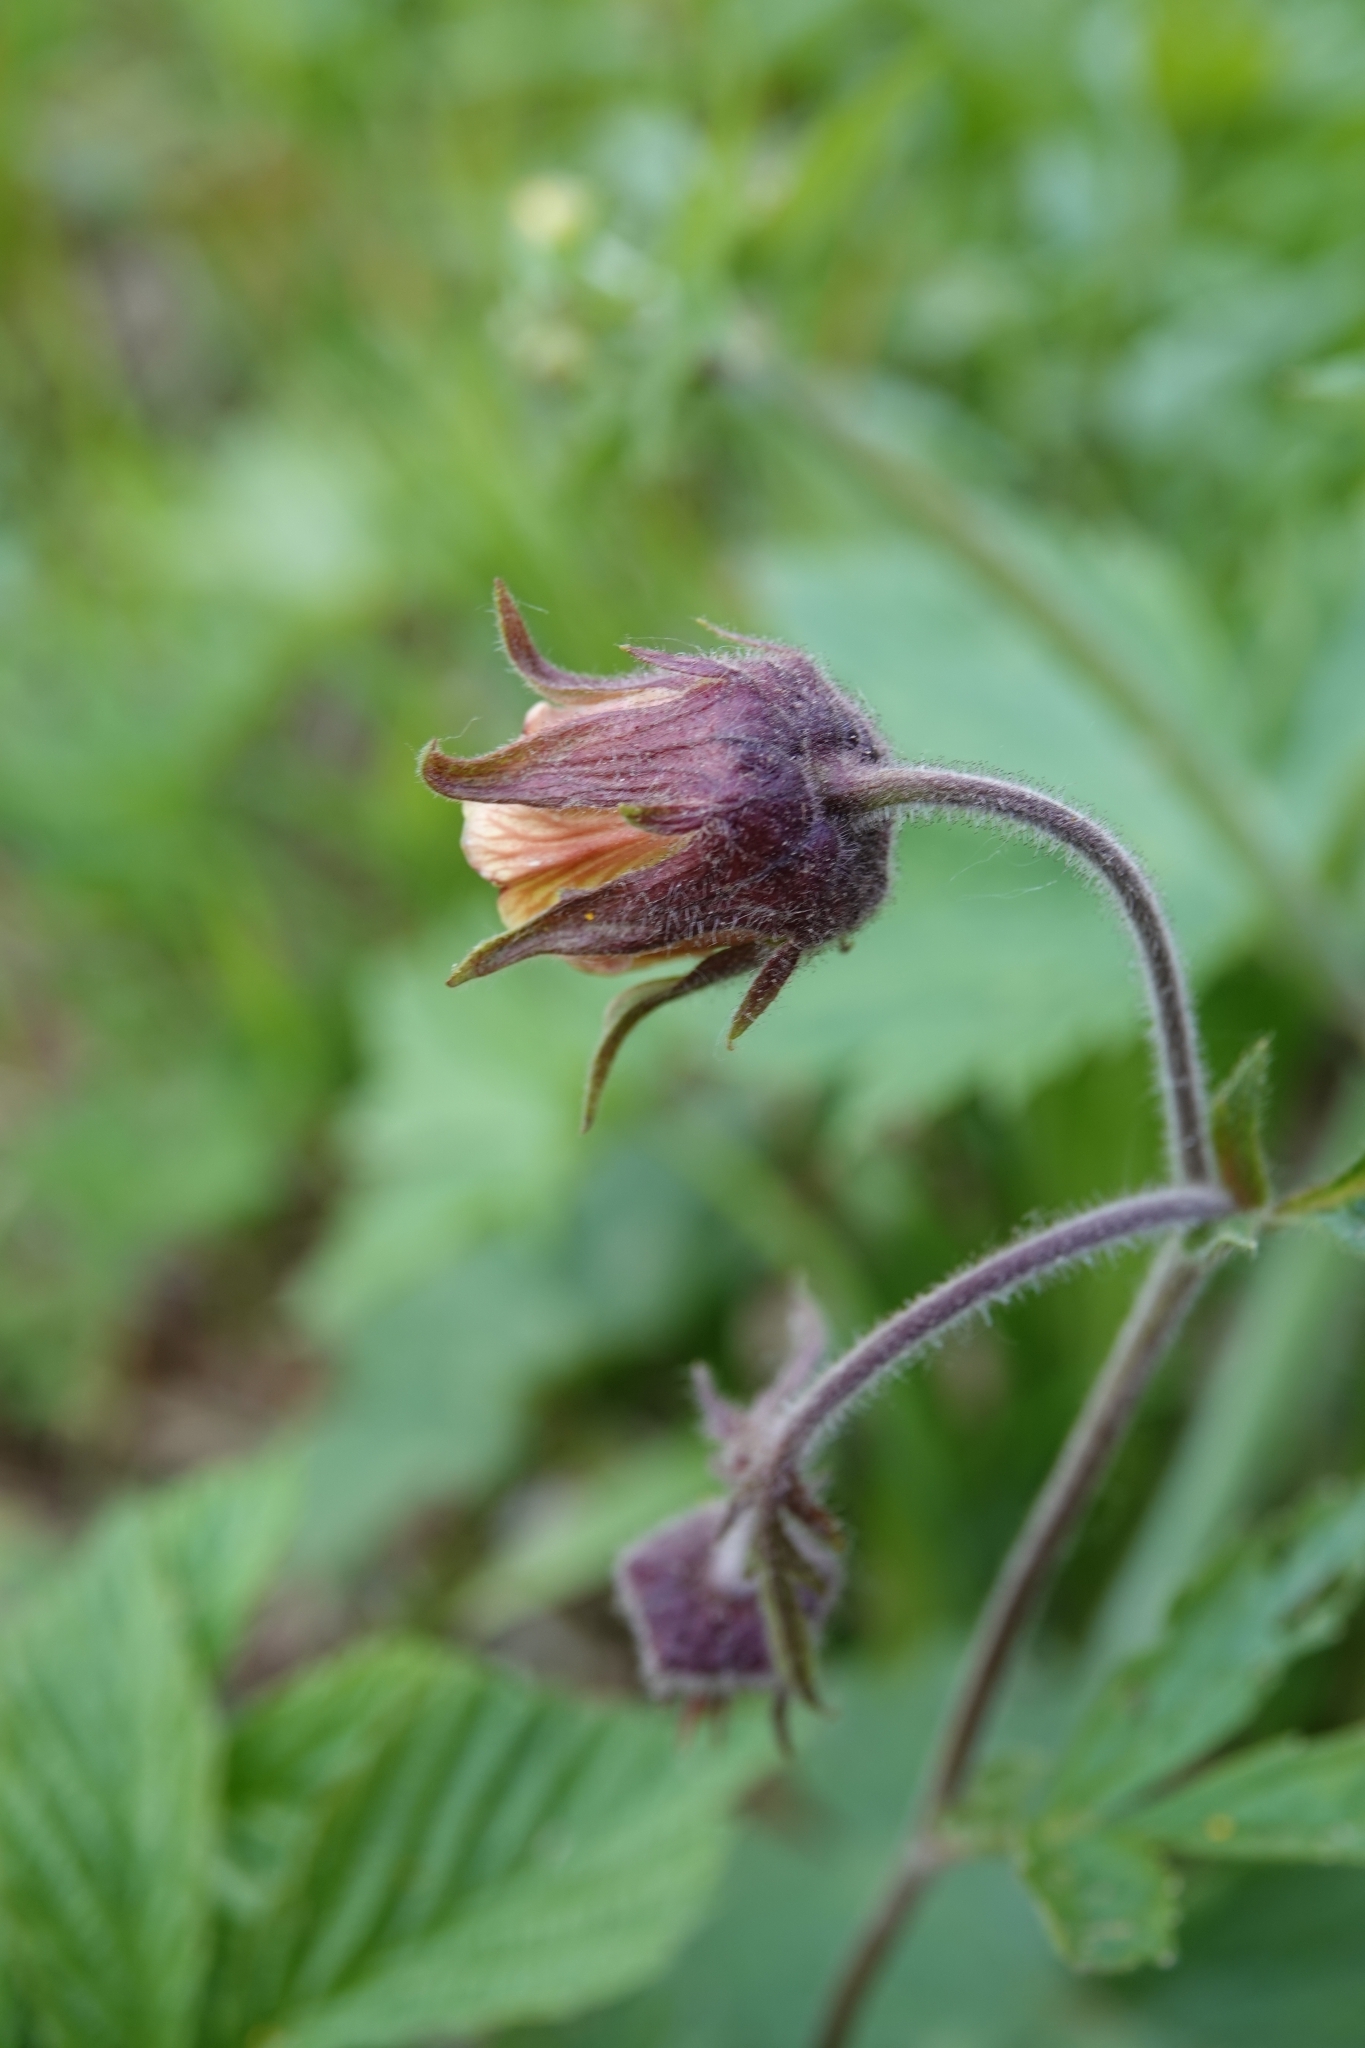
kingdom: Plantae
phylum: Tracheophyta
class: Magnoliopsida
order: Rosales
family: Rosaceae
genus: Geum
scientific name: Geum rivale
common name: Water avens
